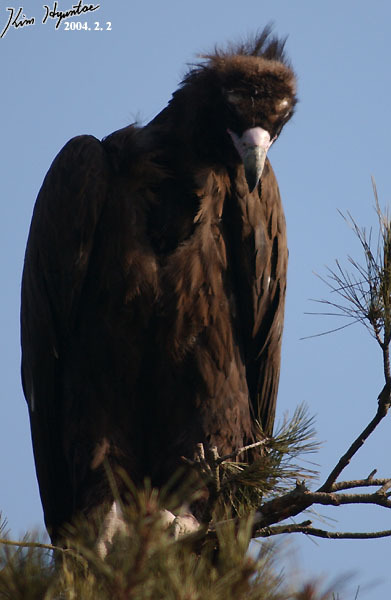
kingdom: Animalia
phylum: Chordata
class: Aves
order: Accipitriformes
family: Accipitridae
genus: Aegypius
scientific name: Aegypius monachus
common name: Cinereous vulture
